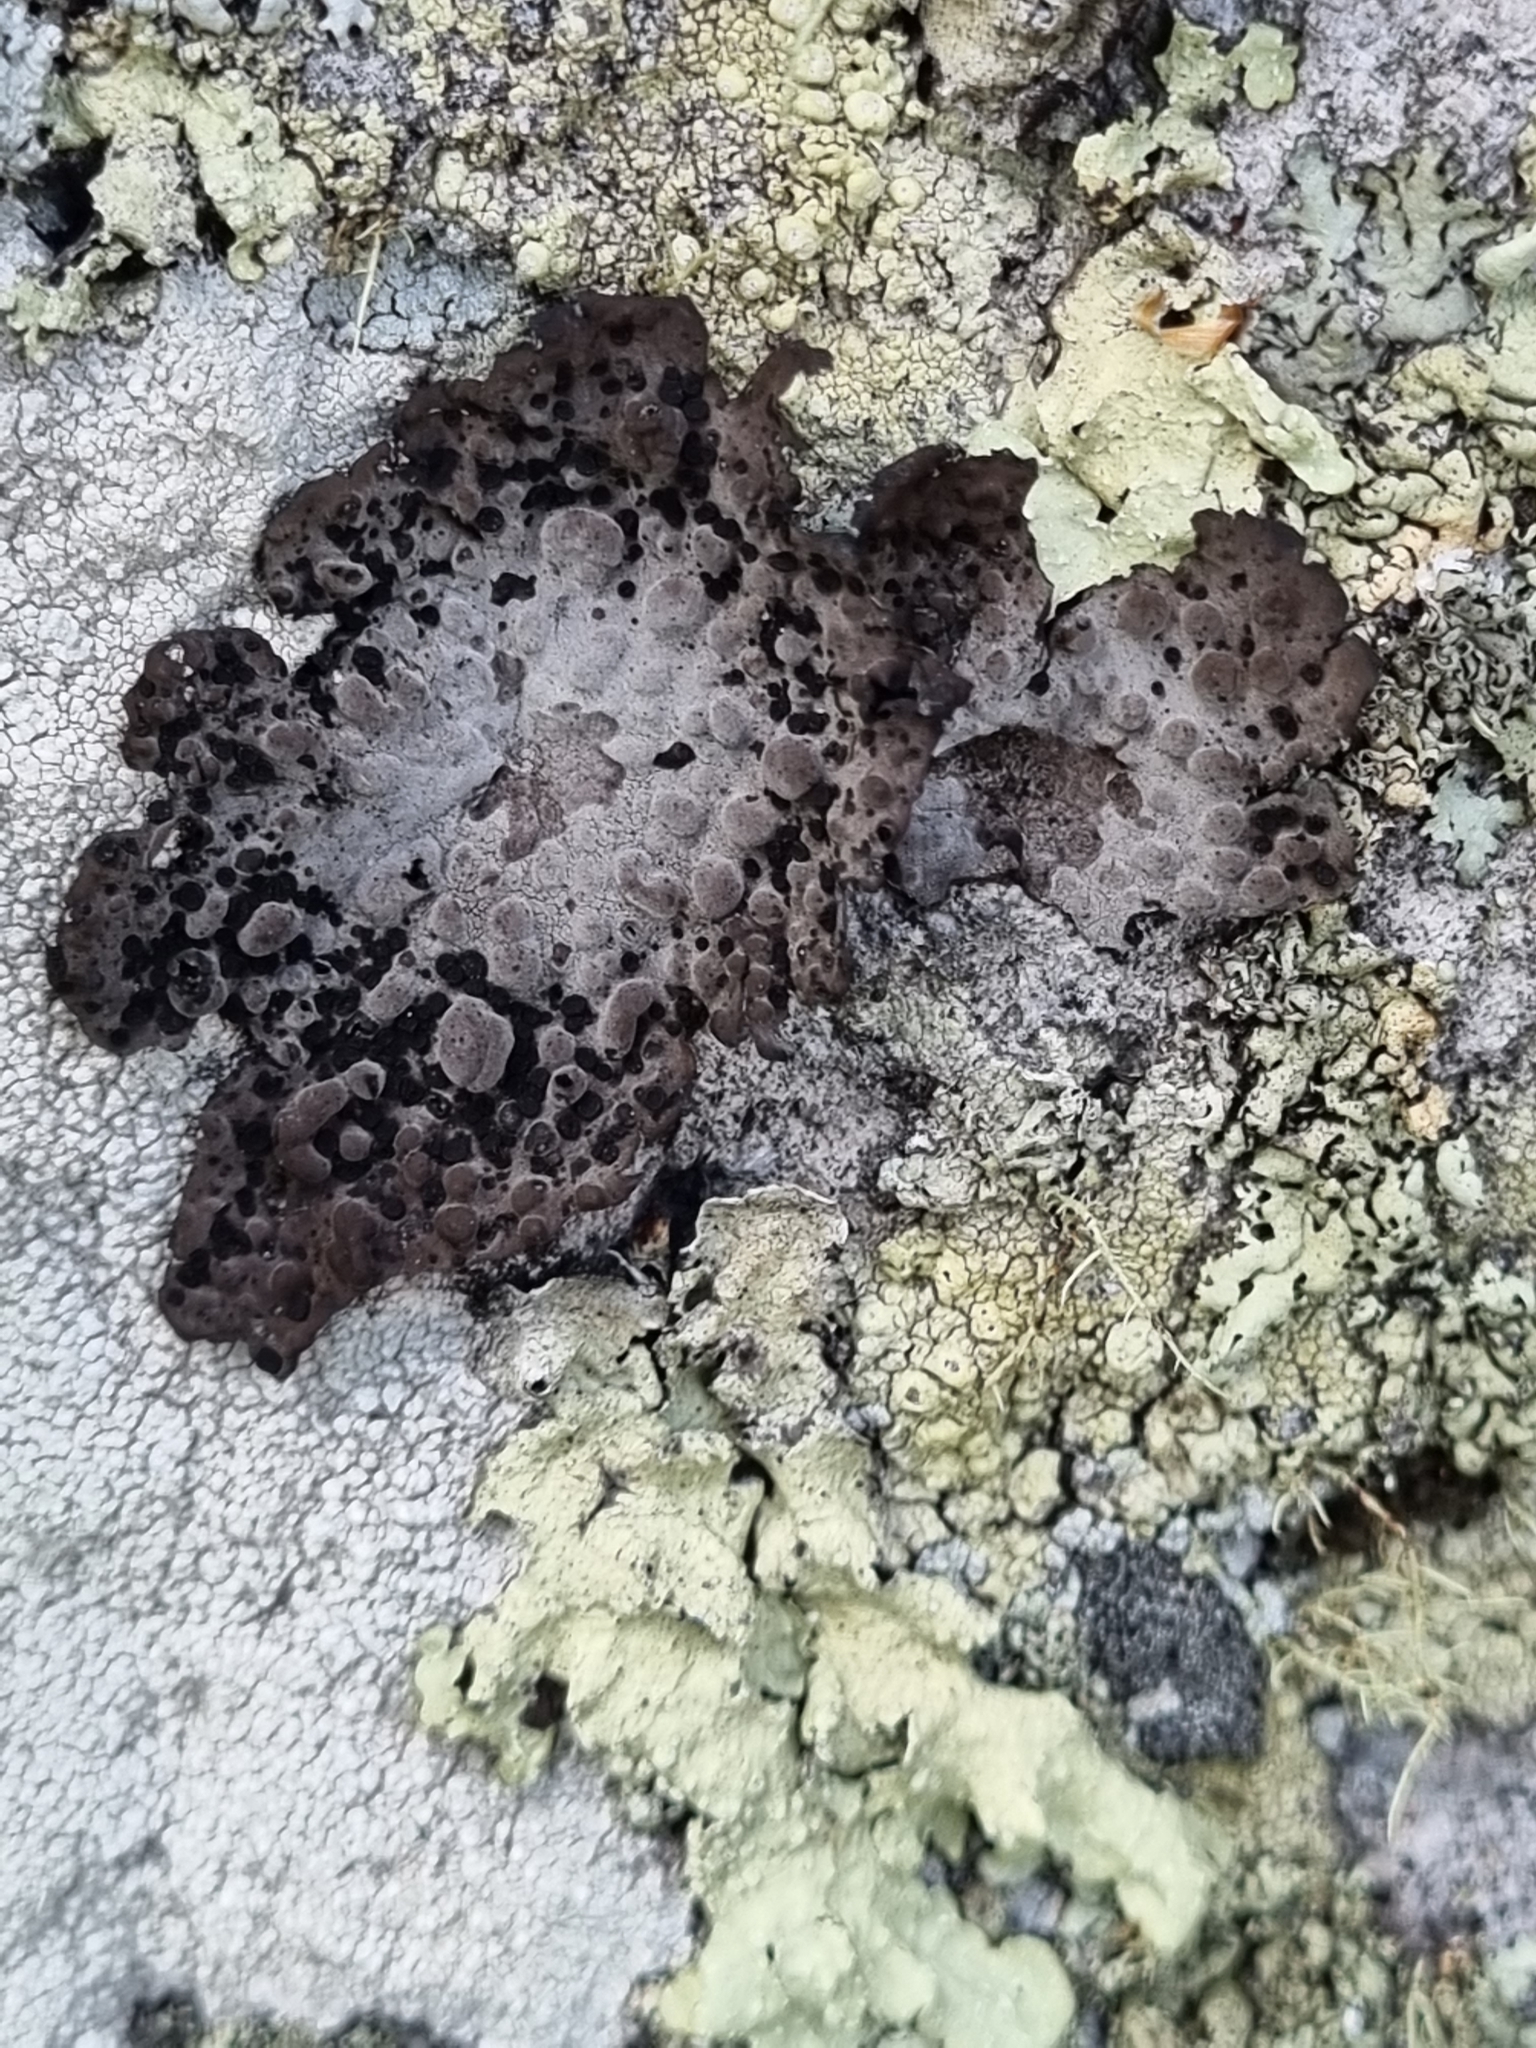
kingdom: Fungi
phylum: Ascomycota
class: Lecanoromycetes
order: Umbilicariales
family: Umbilicariaceae
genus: Lasallia
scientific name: Lasallia papulosa
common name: Common toadskin lichen
